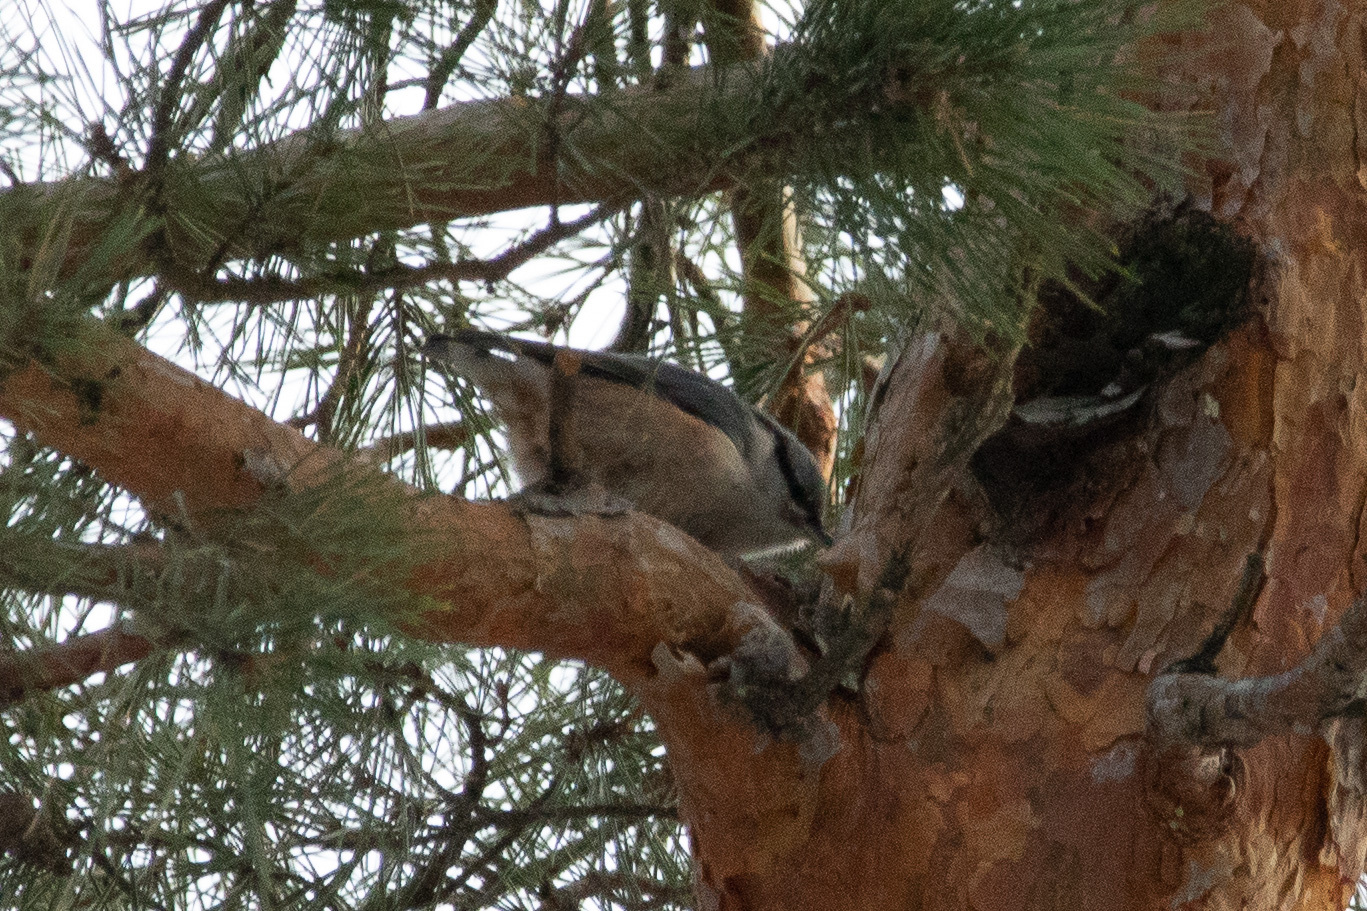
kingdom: Animalia
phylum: Chordata
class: Aves
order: Passeriformes
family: Sittidae
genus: Sitta
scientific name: Sitta europaea
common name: Eurasian nuthatch
